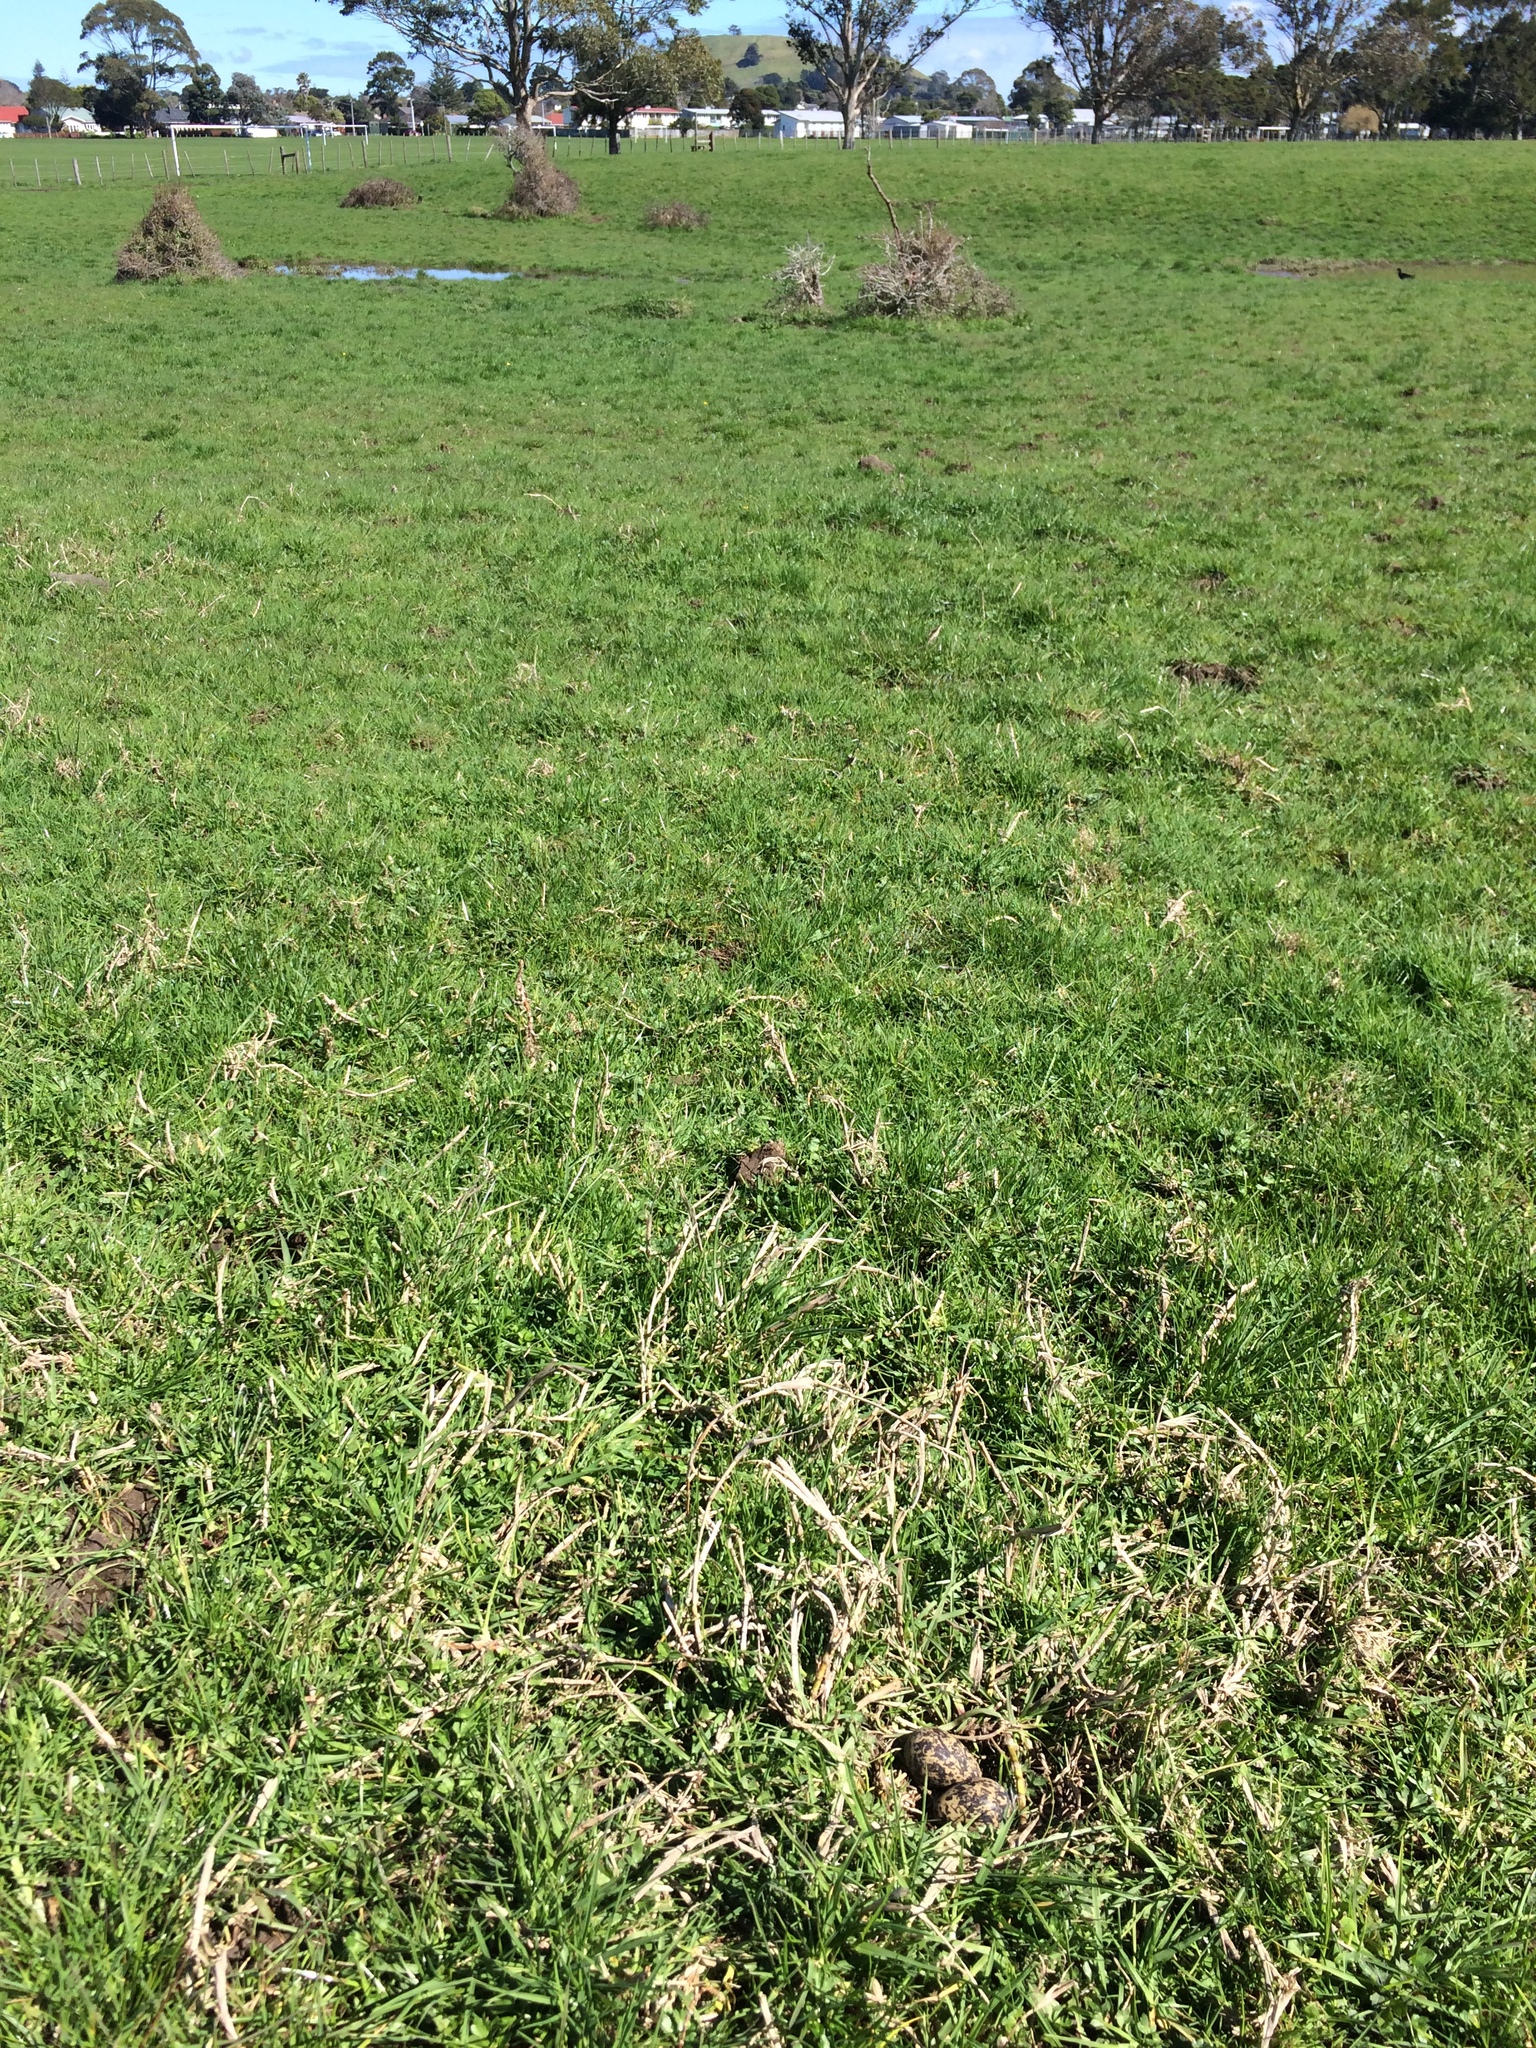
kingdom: Animalia
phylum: Chordata
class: Aves
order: Charadriiformes
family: Recurvirostridae
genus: Himantopus
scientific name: Himantopus leucocephalus
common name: White-headed stilt
